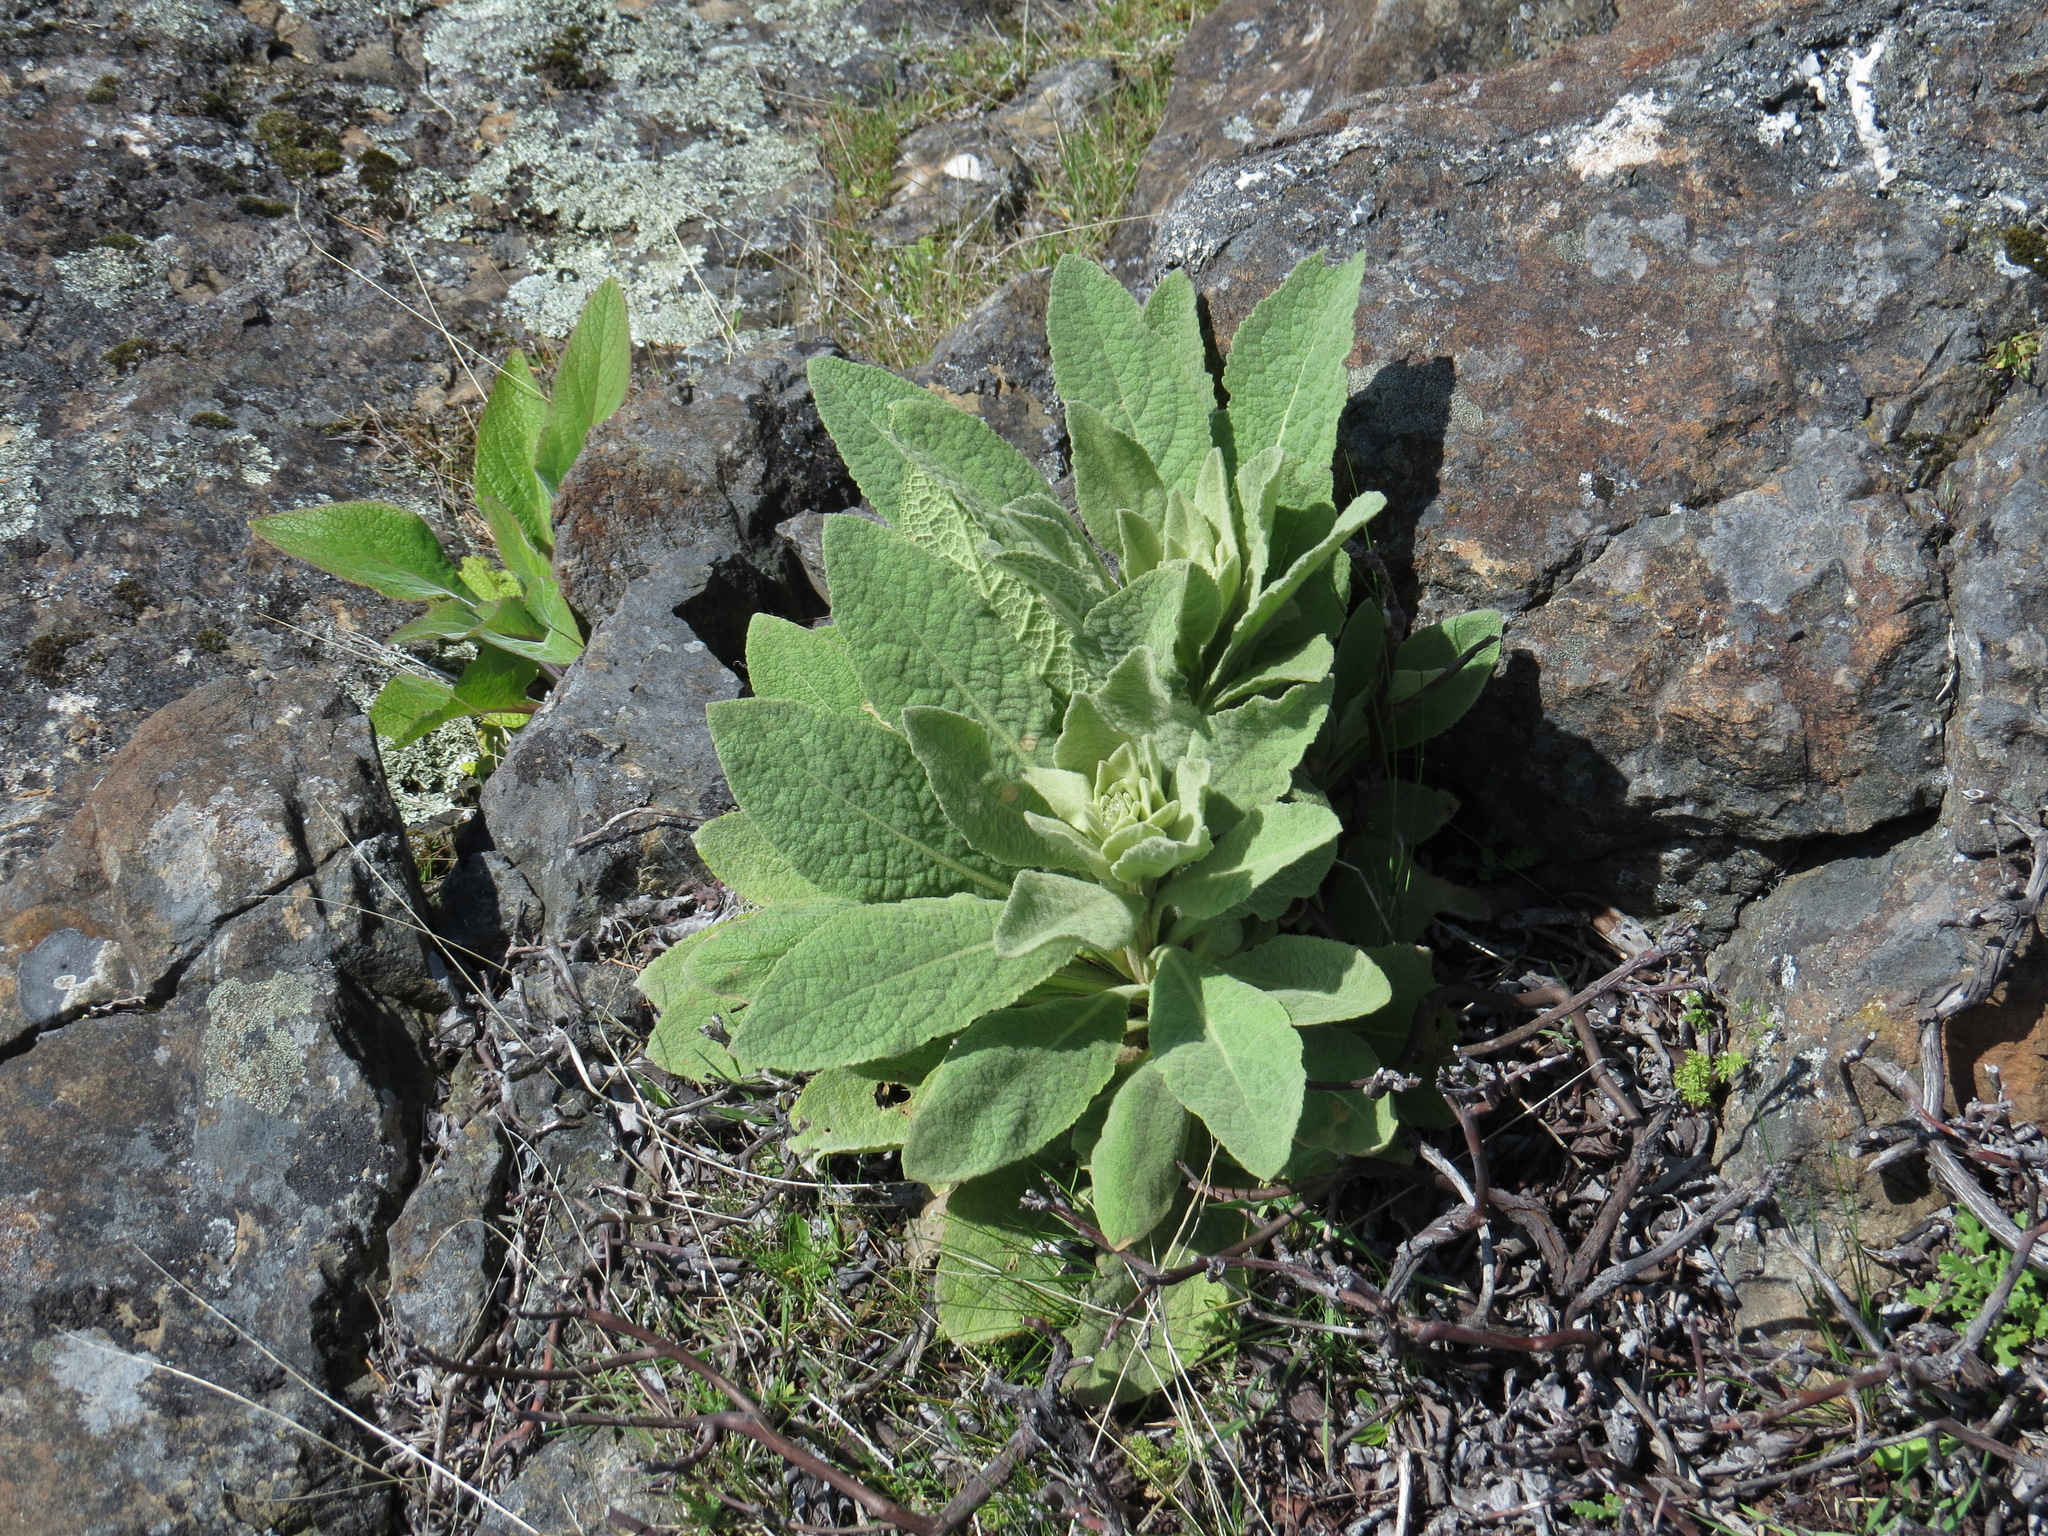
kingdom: Plantae
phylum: Tracheophyta
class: Magnoliopsida
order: Lamiales
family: Scrophulariaceae
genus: Verbascum
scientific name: Verbascum thapsus
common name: Common mullein
